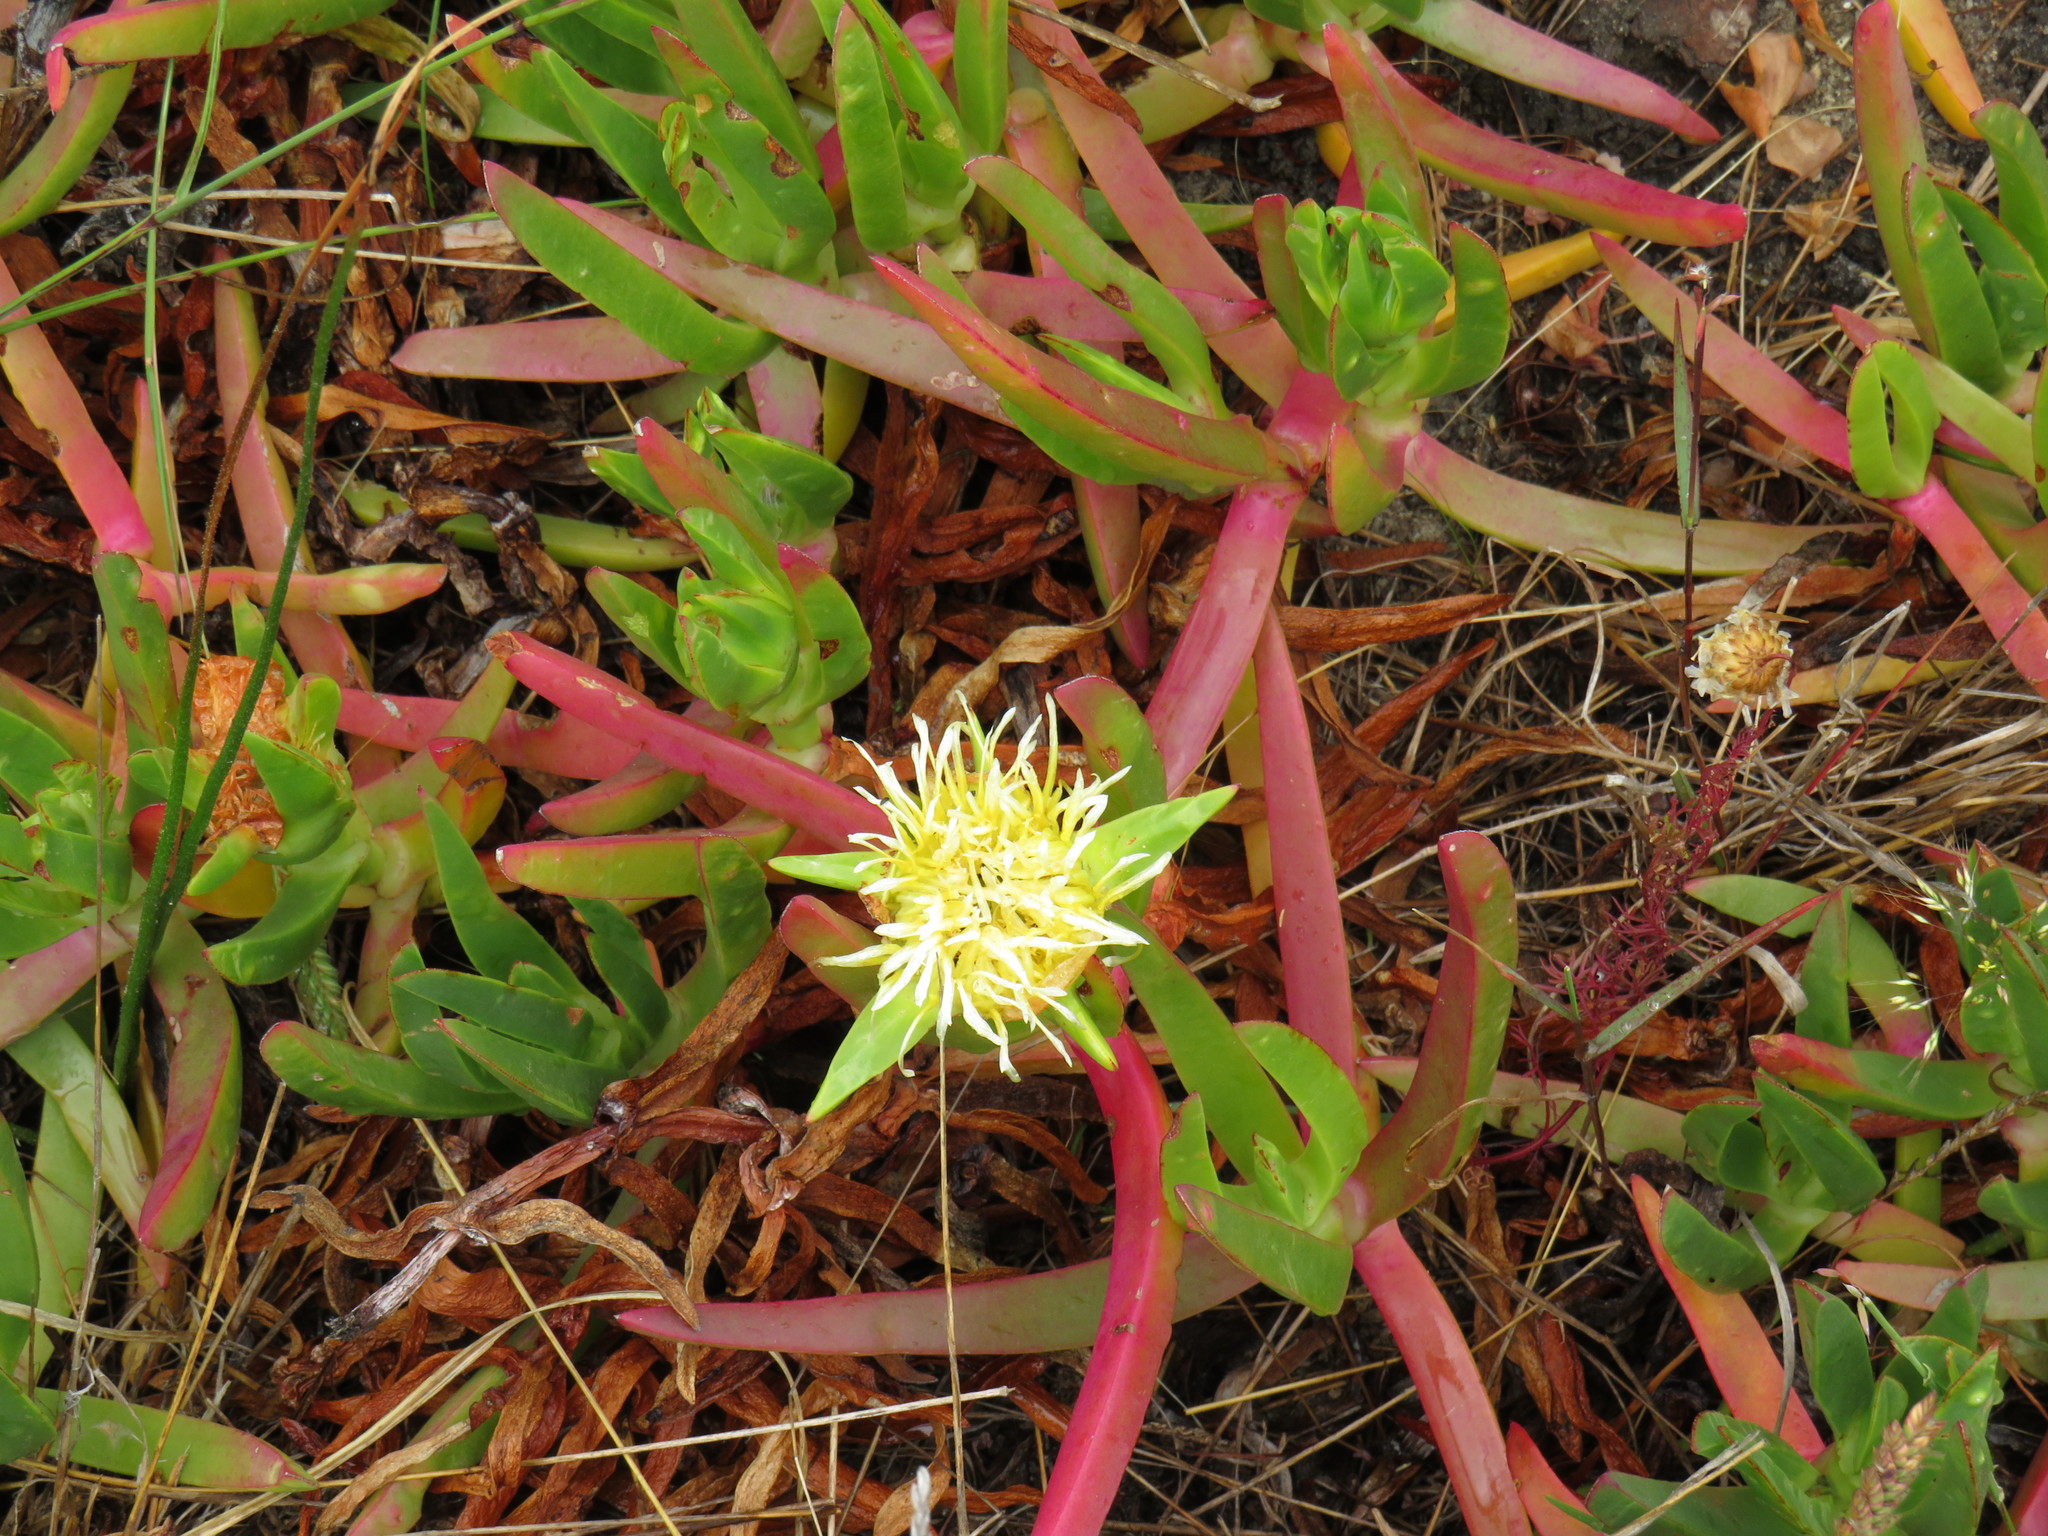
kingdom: Plantae
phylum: Tracheophyta
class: Magnoliopsida
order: Caryophyllales
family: Aizoaceae
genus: Carpobrotus
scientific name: Carpobrotus edulis
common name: Hottentot-fig
